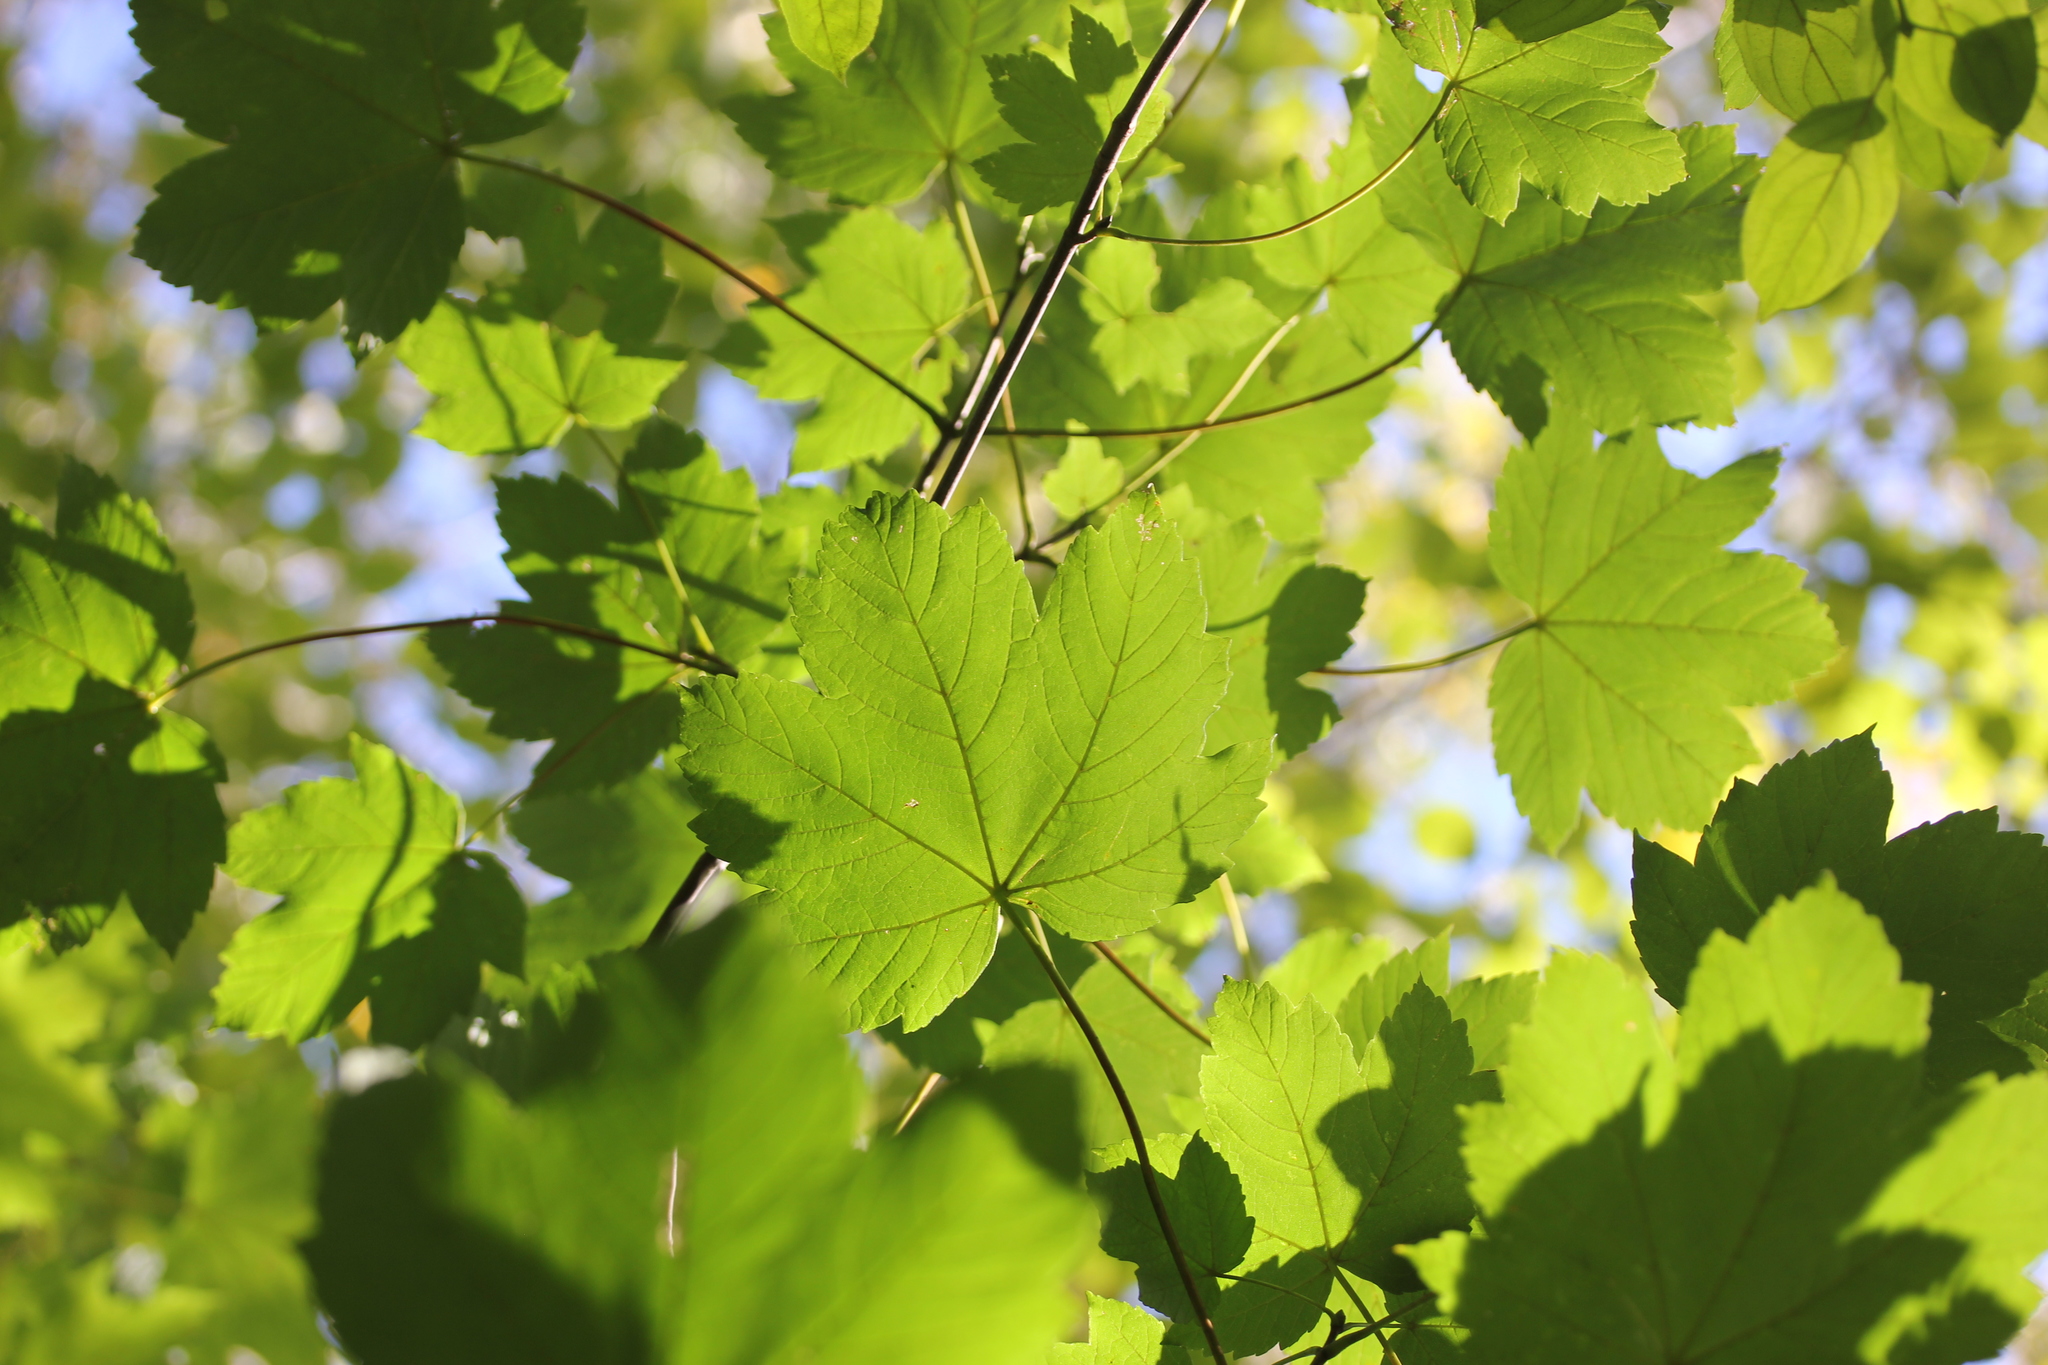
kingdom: Plantae
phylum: Tracheophyta
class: Magnoliopsida
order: Sapindales
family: Sapindaceae
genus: Acer
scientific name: Acer pseudoplatanus
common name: Sycamore
